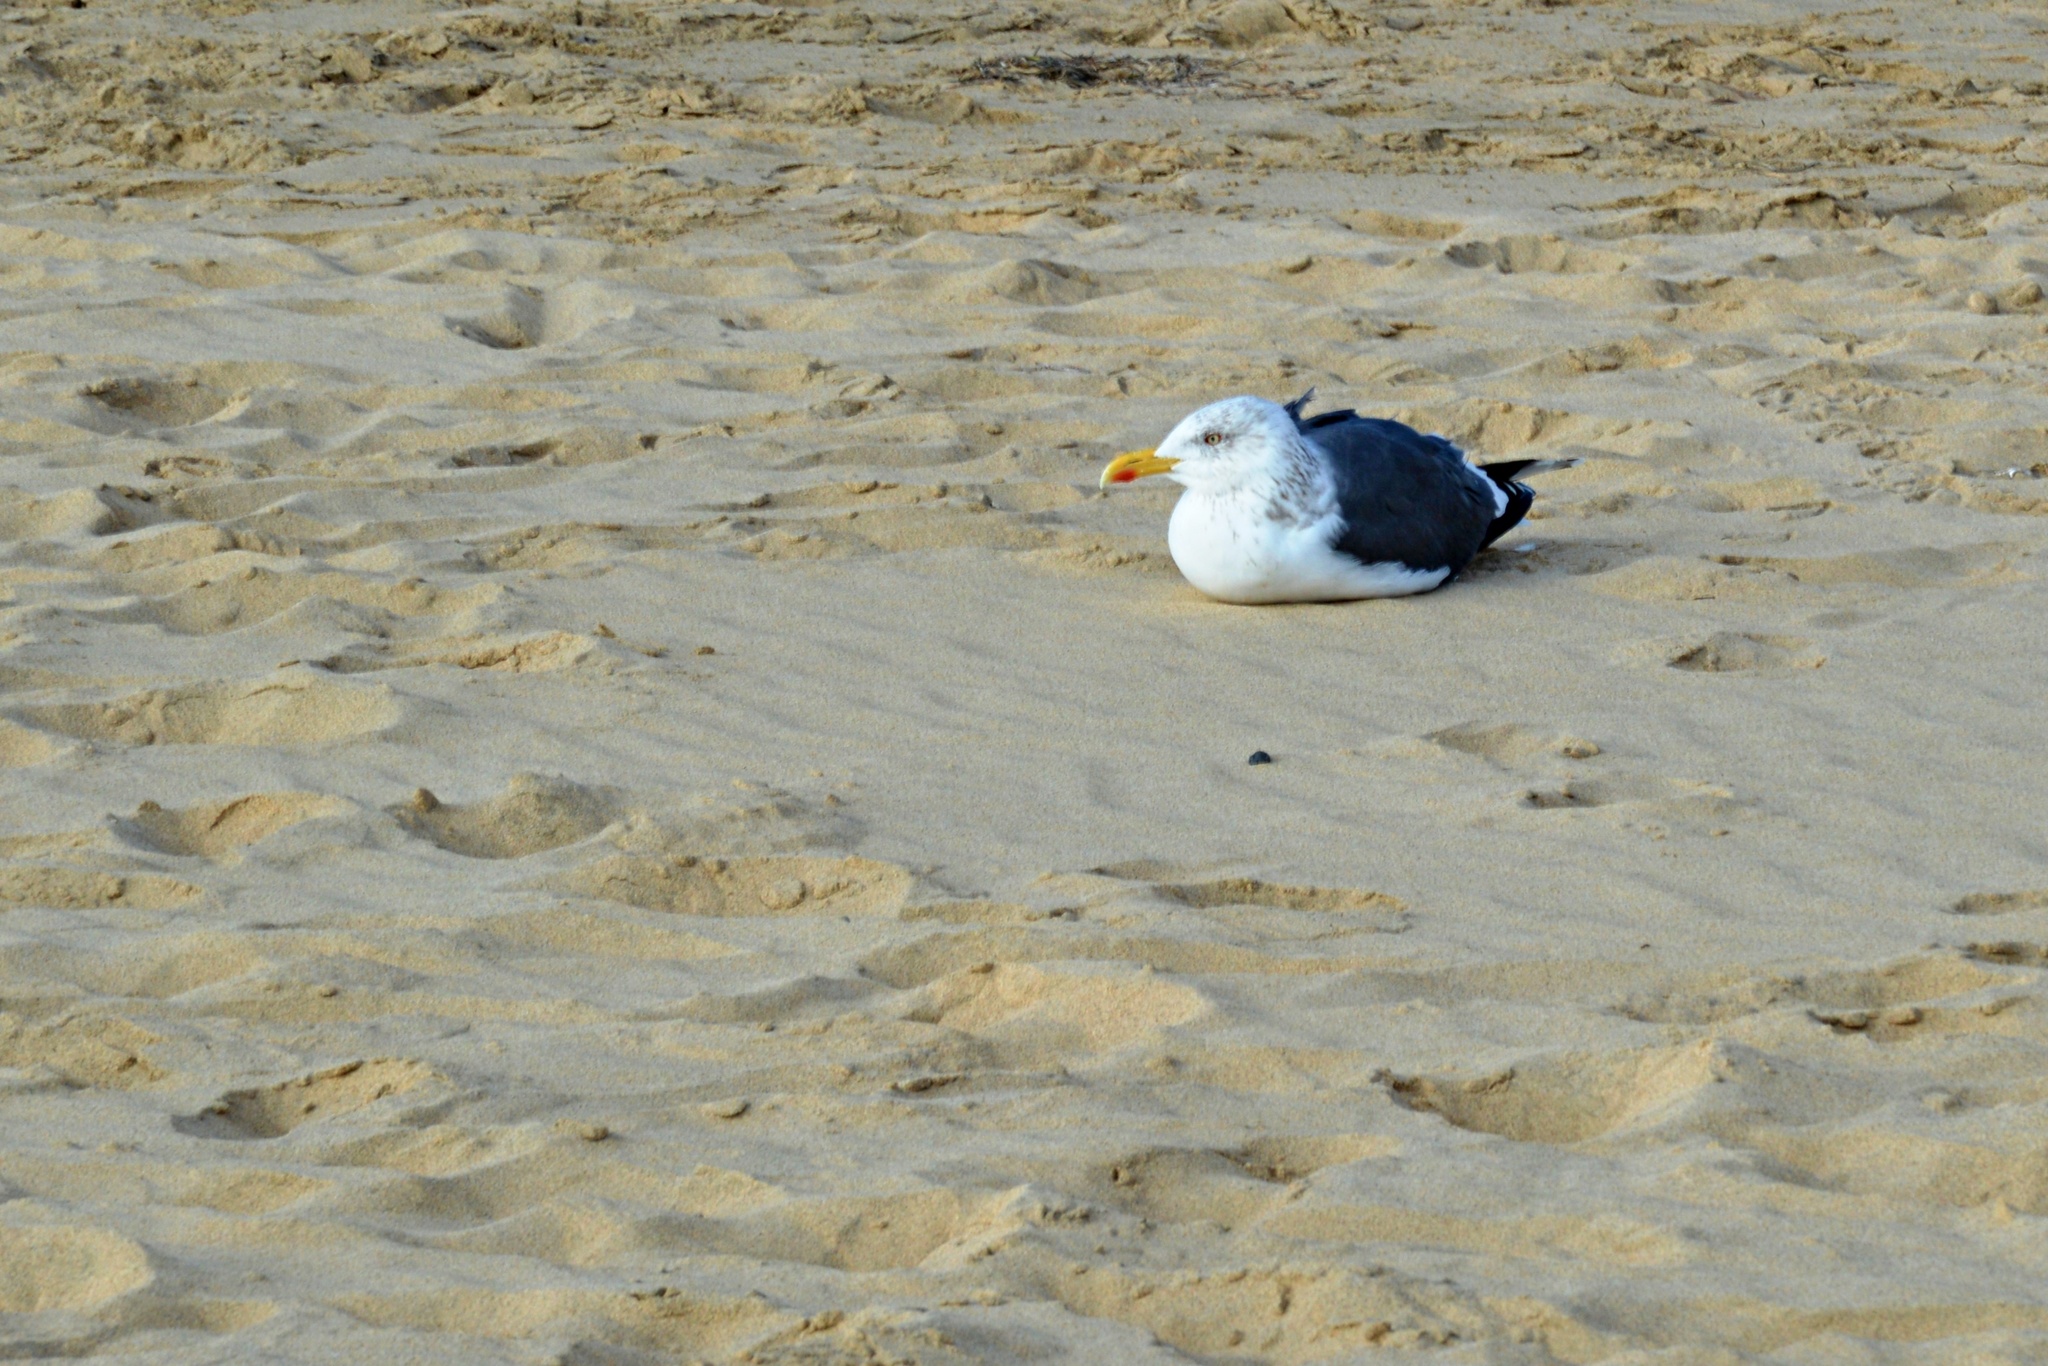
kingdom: Animalia
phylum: Chordata
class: Aves
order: Charadriiformes
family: Laridae
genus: Larus
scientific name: Larus fuscus
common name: Lesser black-backed gull
